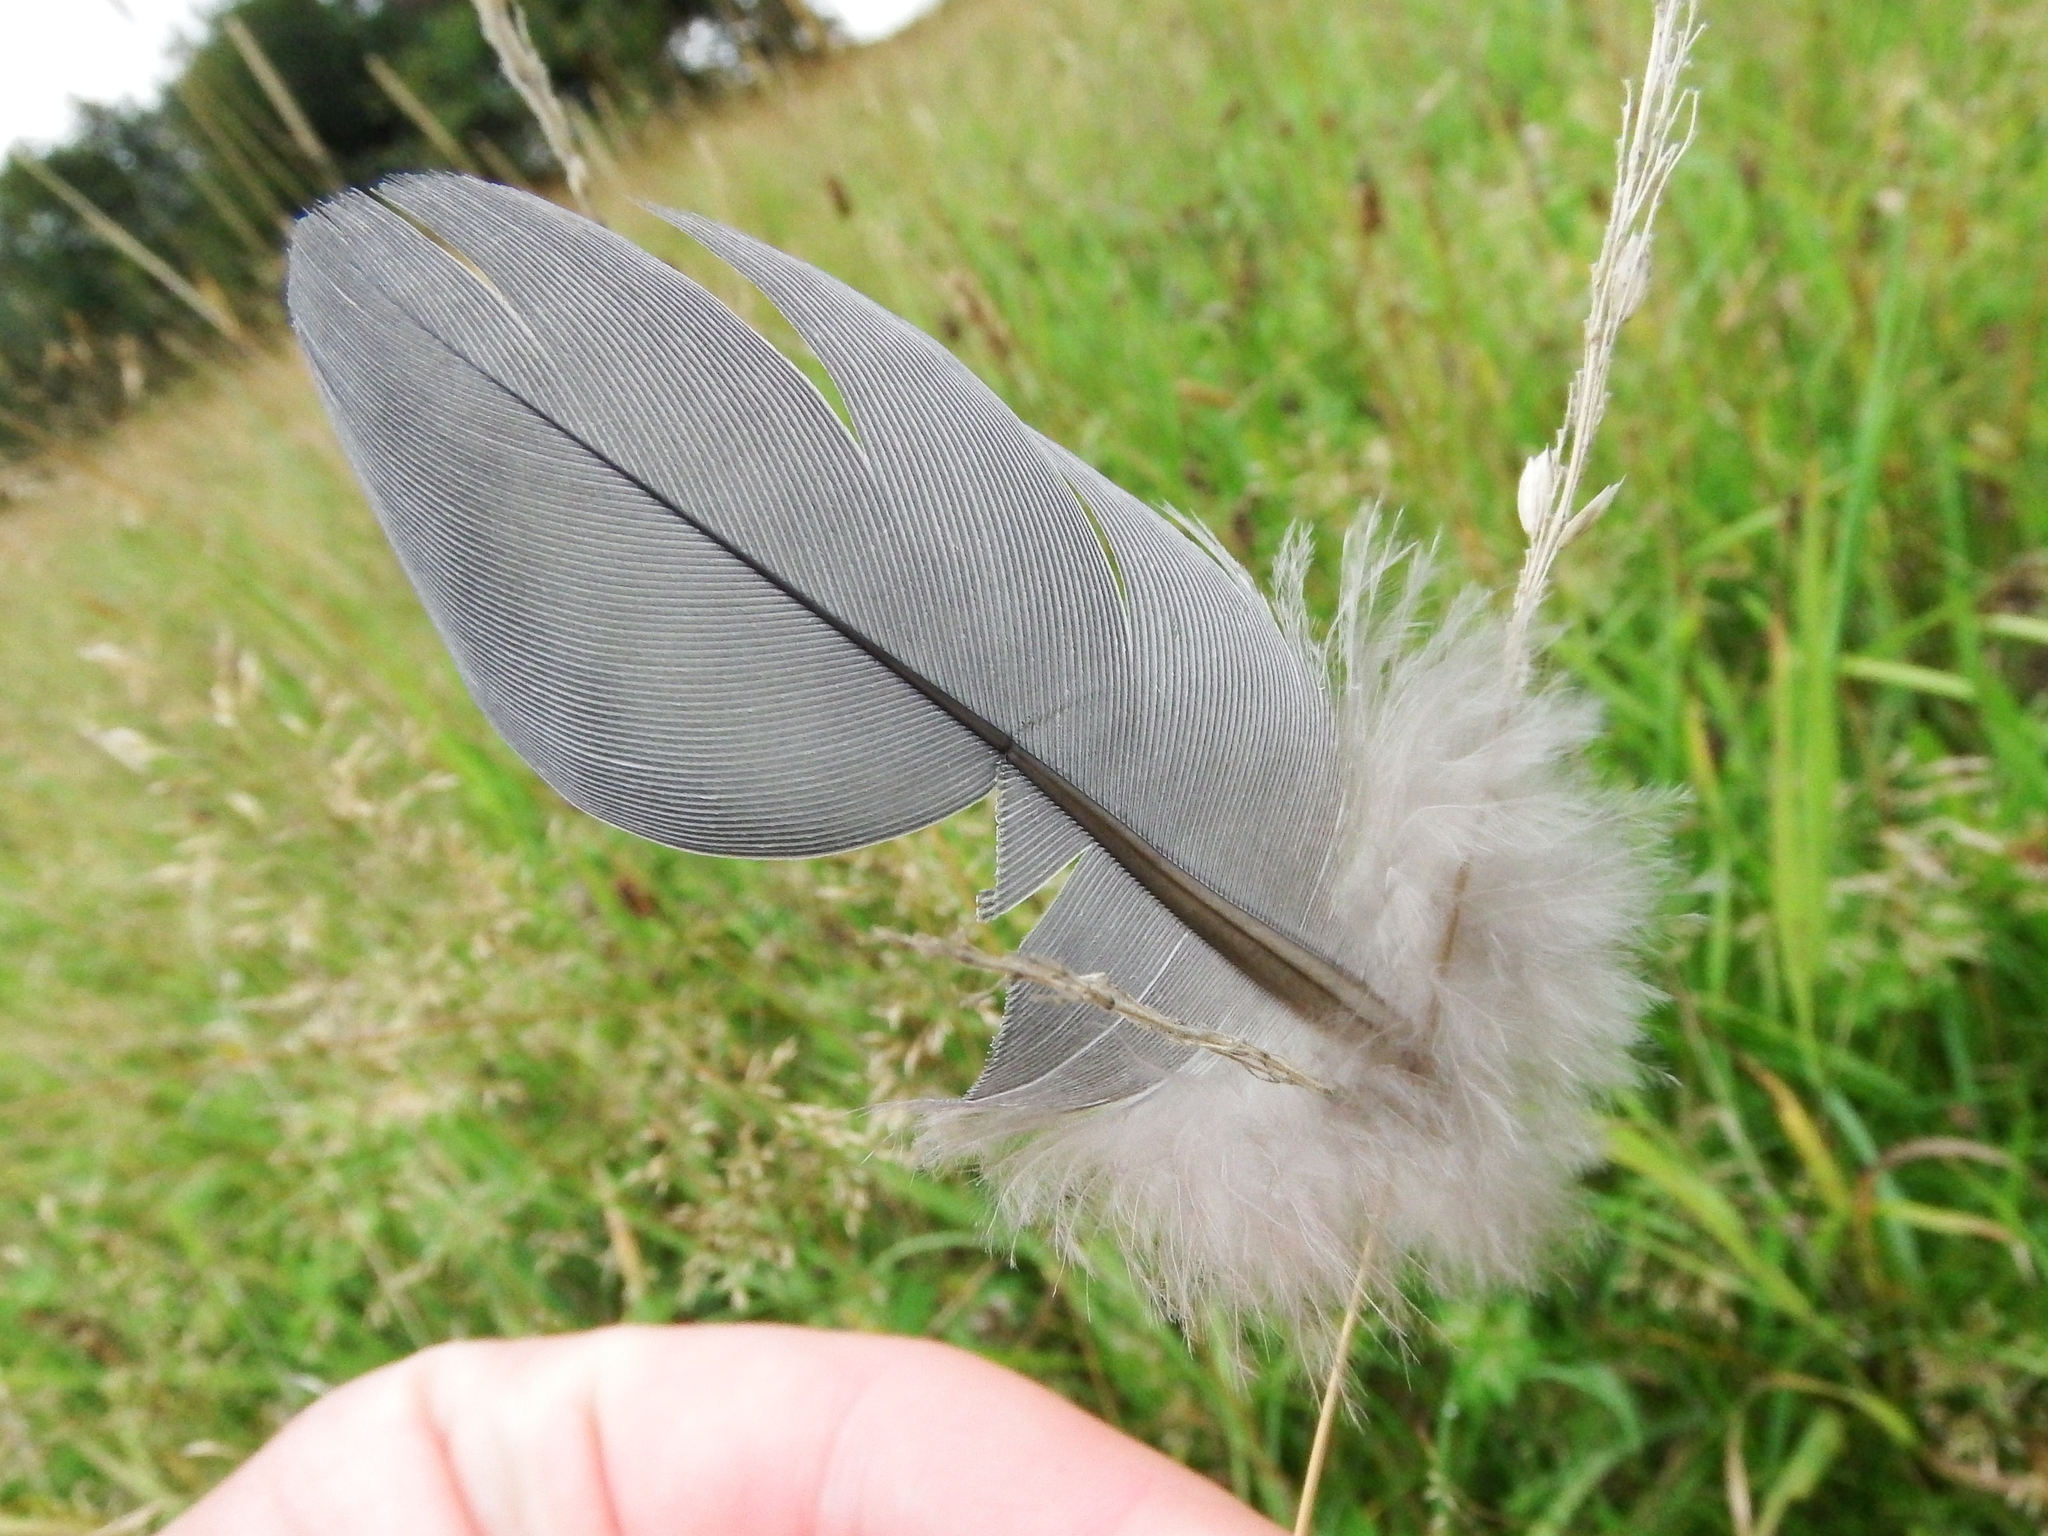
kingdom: Animalia
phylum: Chordata
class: Aves
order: Columbiformes
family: Columbidae
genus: Columba
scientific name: Columba palumbus
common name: Common wood pigeon
